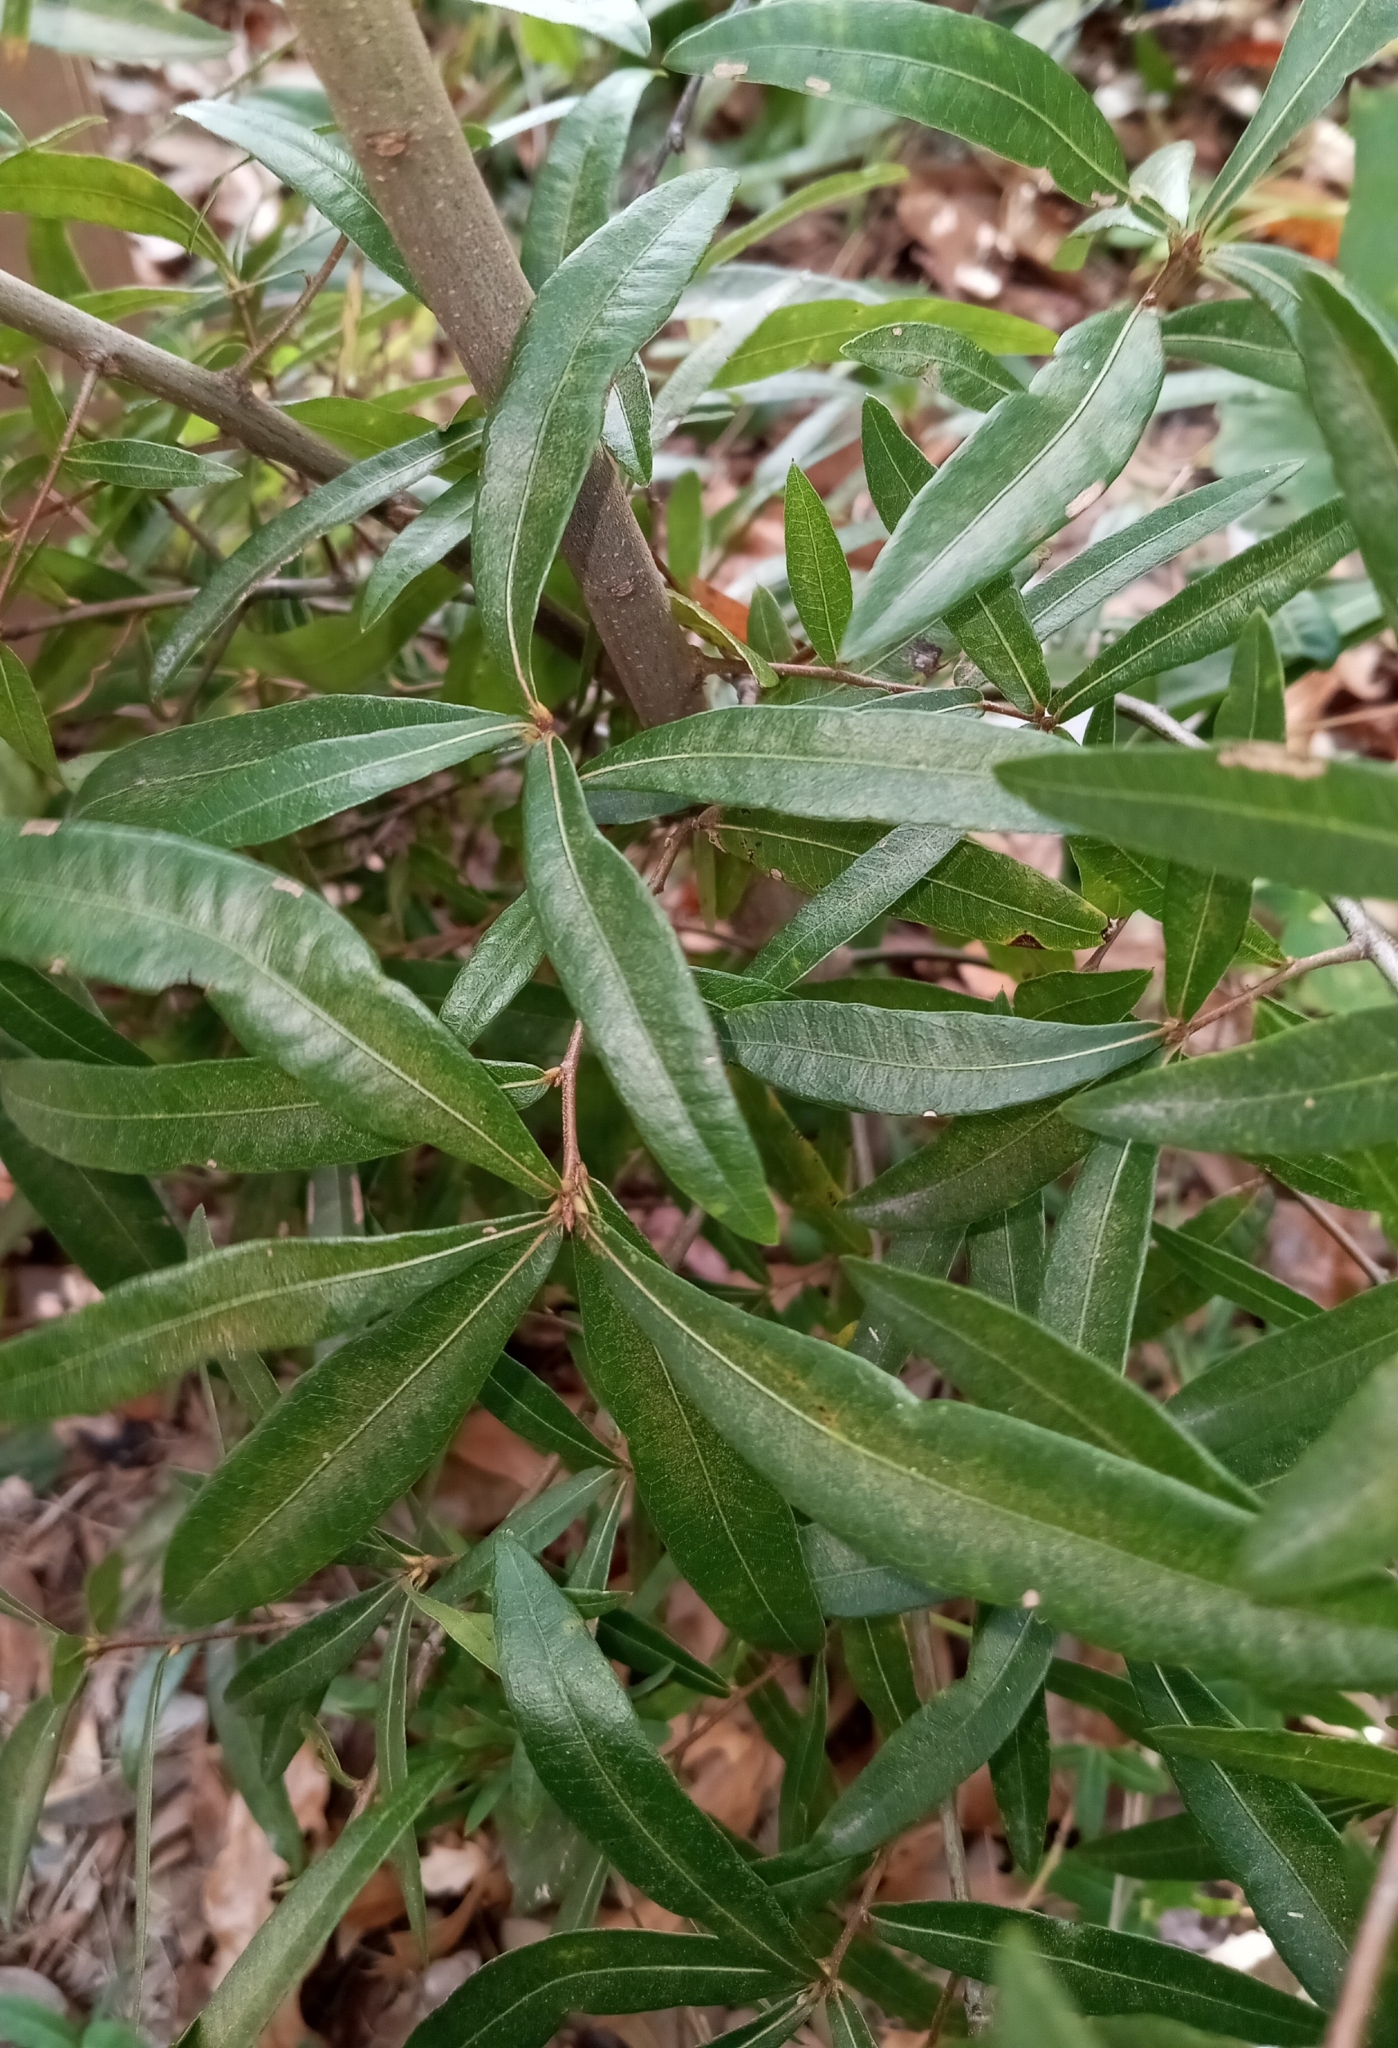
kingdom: Plantae
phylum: Tracheophyta
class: Magnoliopsida
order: Fagales
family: Fagaceae
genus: Quercus
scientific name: Quercus phellos
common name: Willow oak
